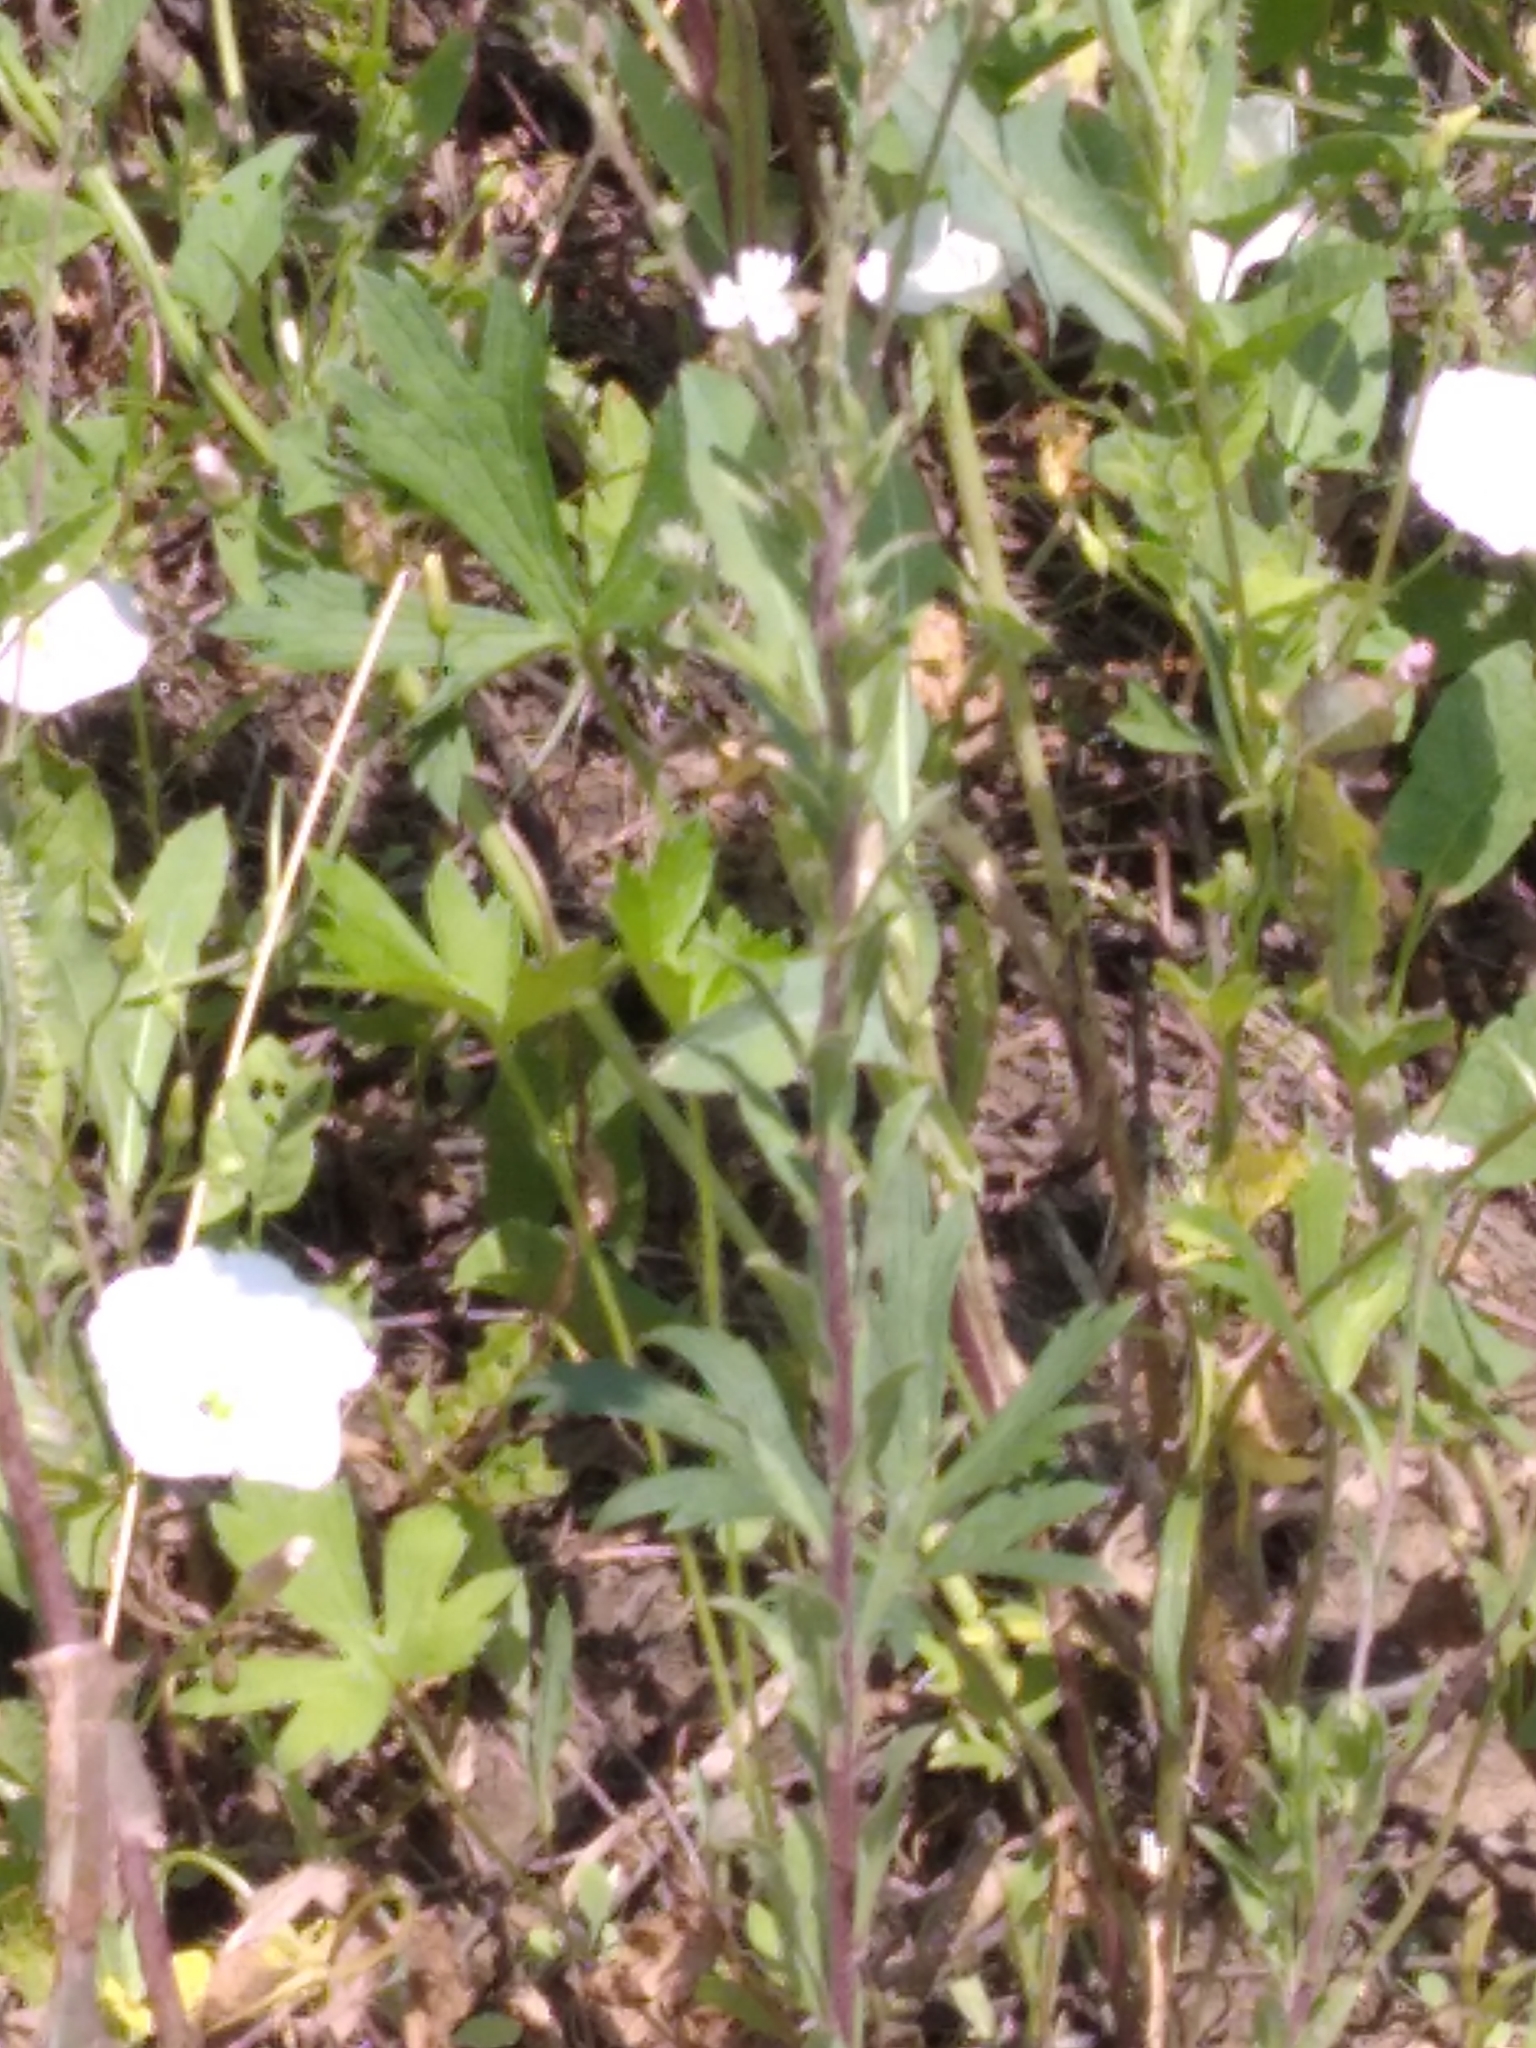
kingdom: Plantae
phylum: Tracheophyta
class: Magnoliopsida
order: Brassicales
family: Brassicaceae
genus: Berteroa
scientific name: Berteroa incana
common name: Hoary alison
